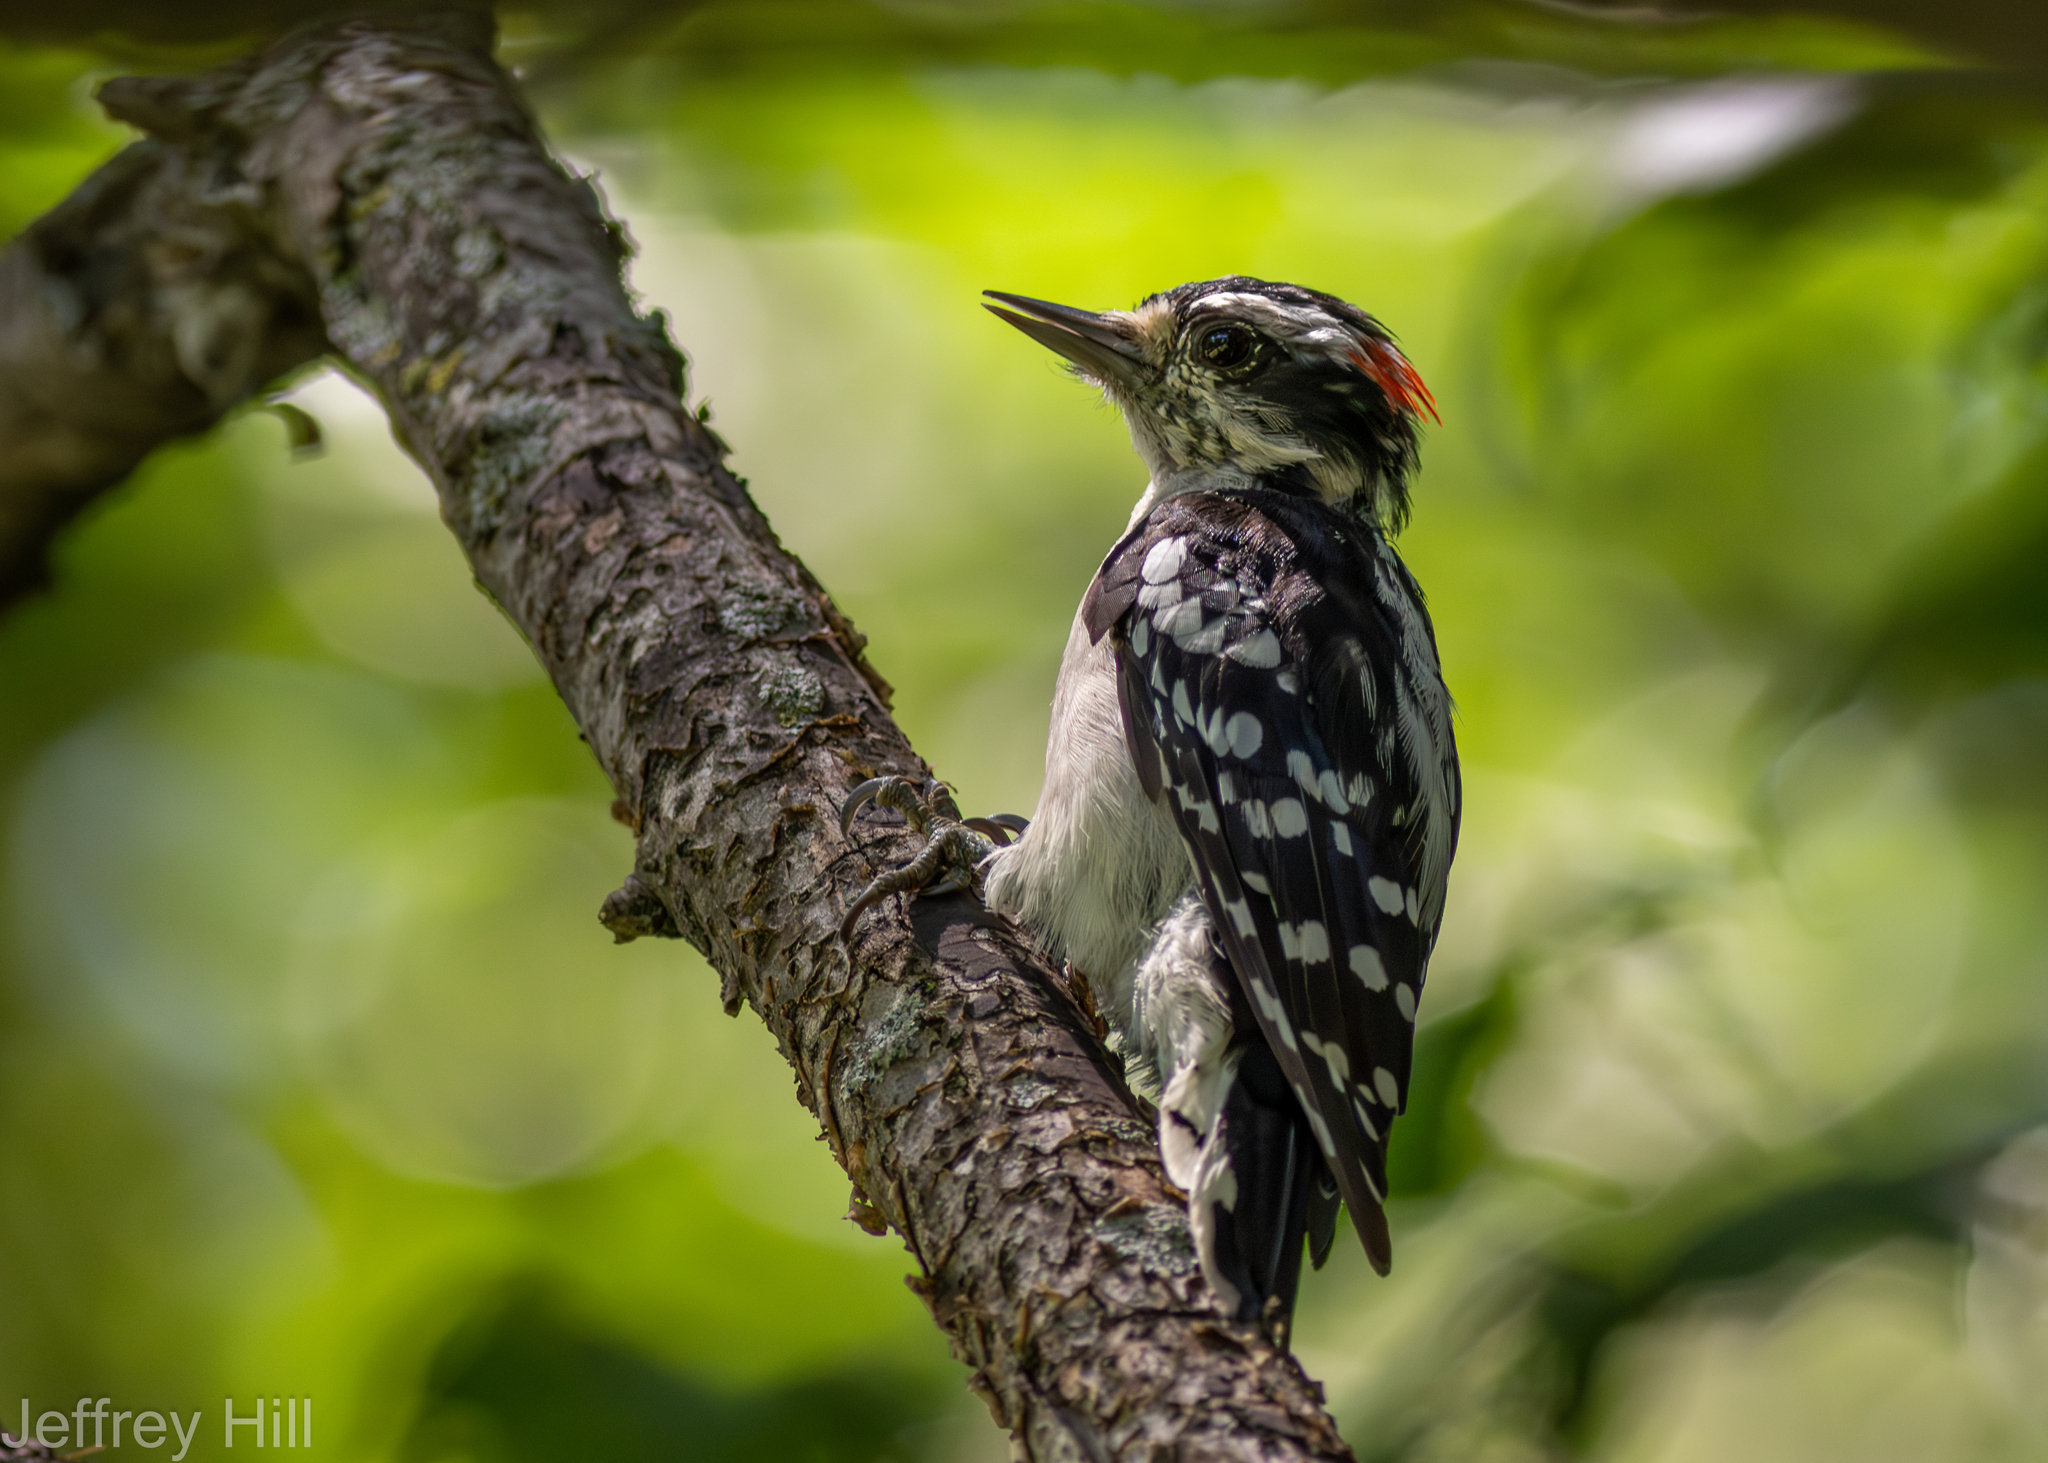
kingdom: Animalia
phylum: Chordata
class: Aves
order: Piciformes
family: Picidae
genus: Dryobates
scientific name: Dryobates pubescens
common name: Downy woodpecker
